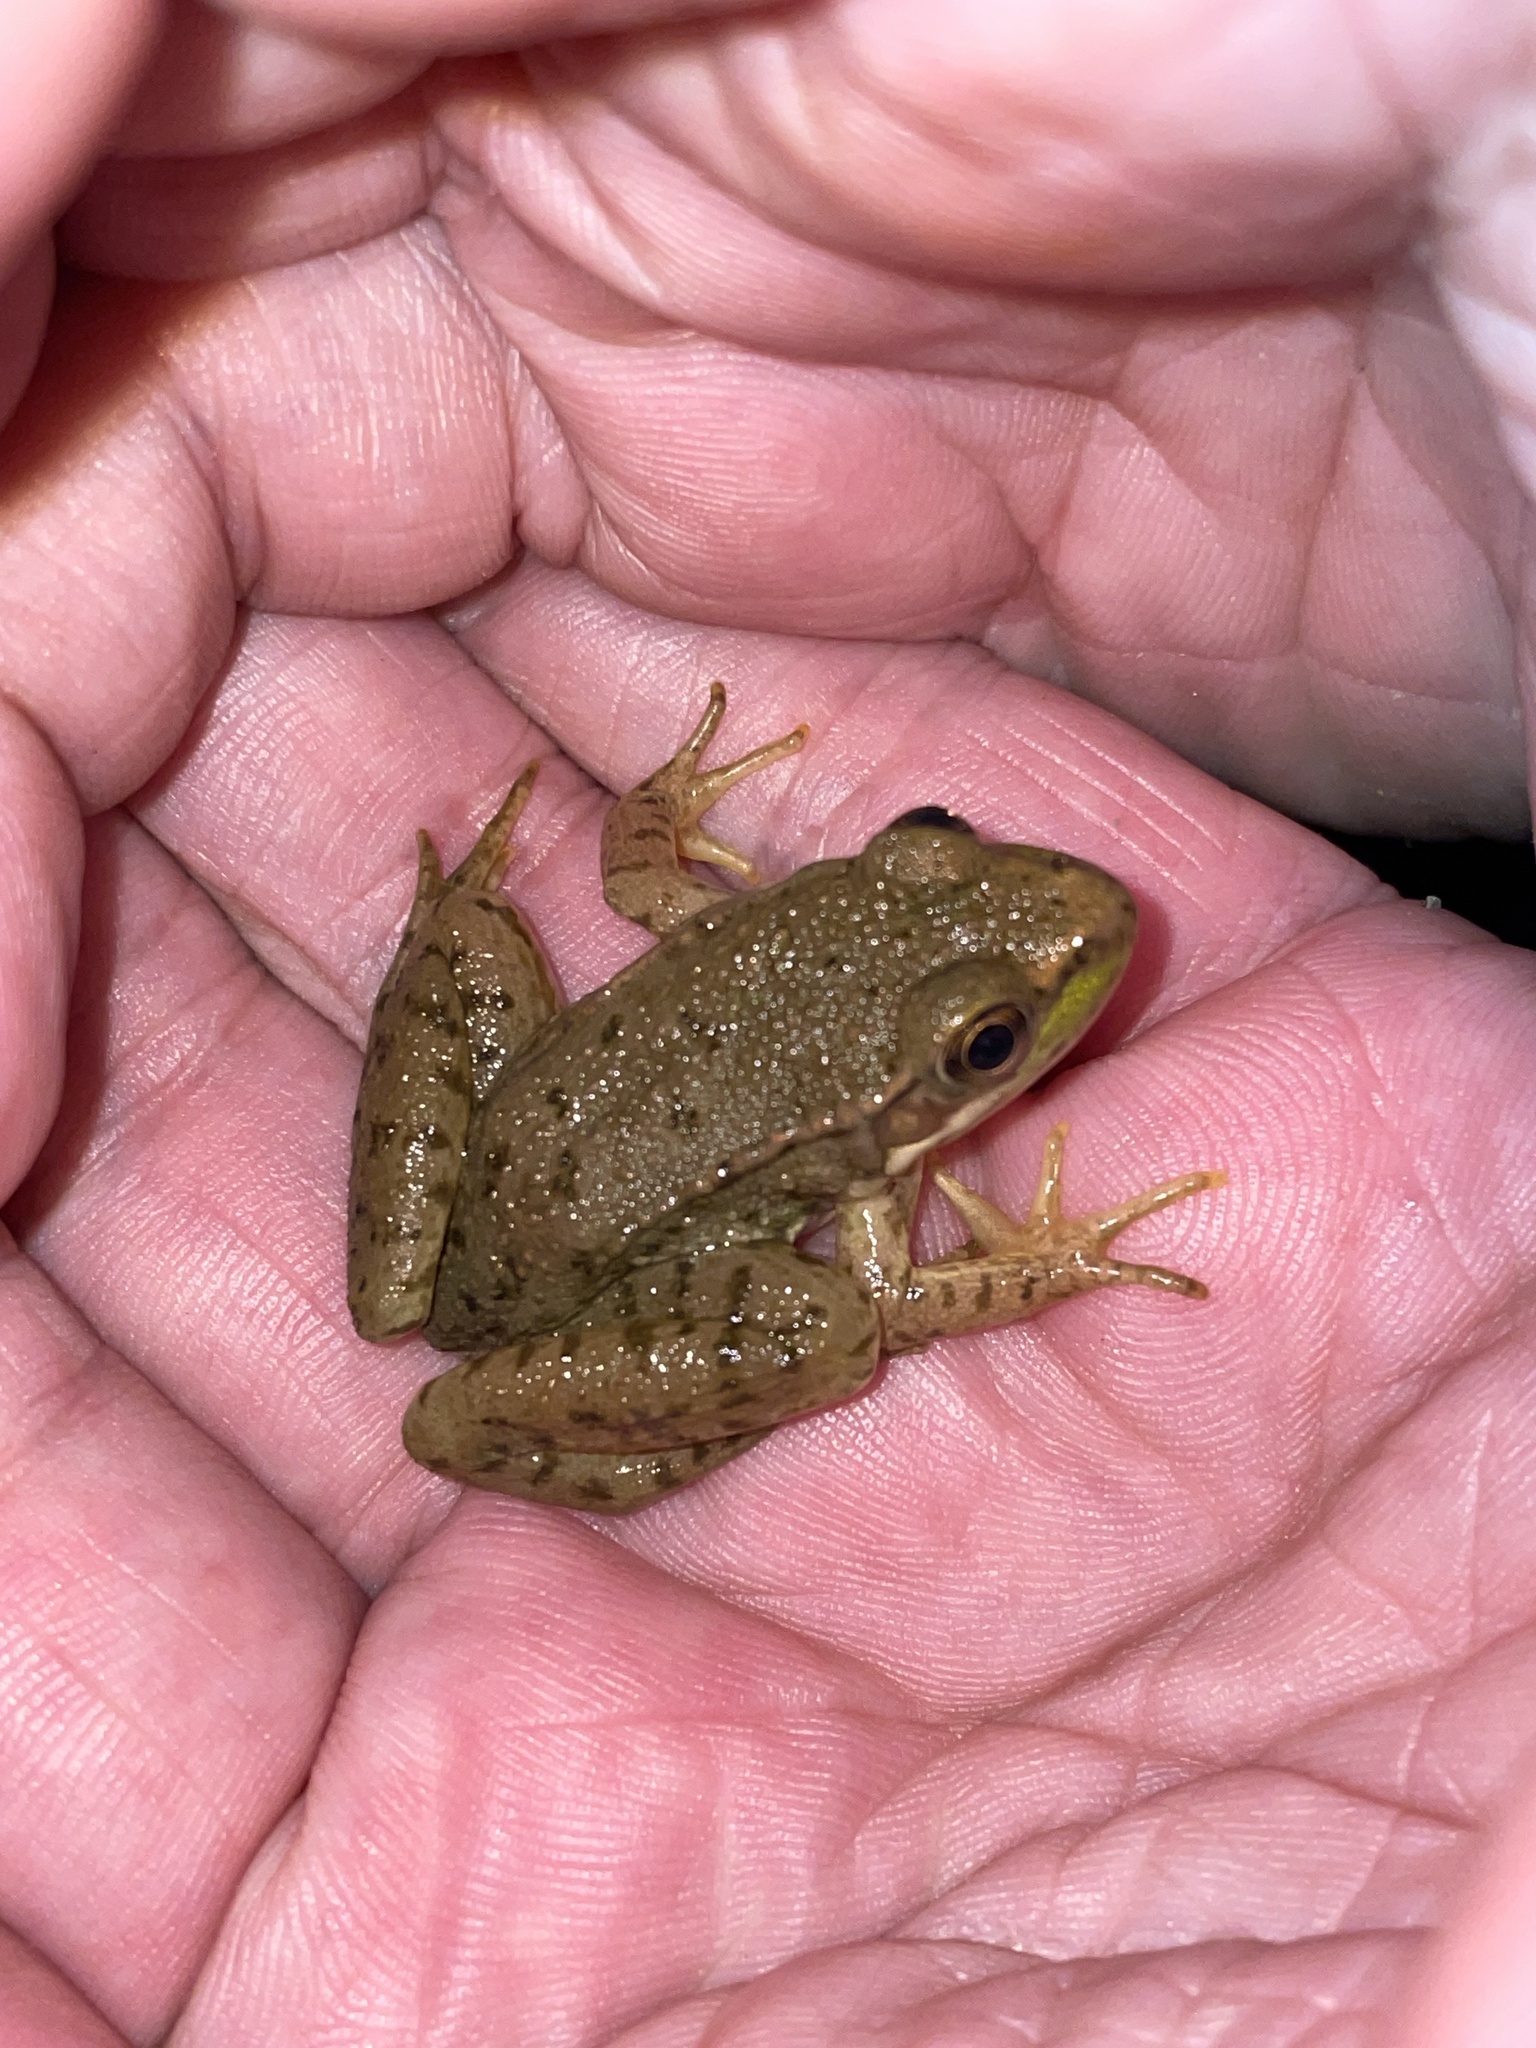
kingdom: Animalia
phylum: Chordata
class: Amphibia
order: Anura
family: Ranidae
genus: Lithobates
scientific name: Lithobates clamitans
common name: Green frog
